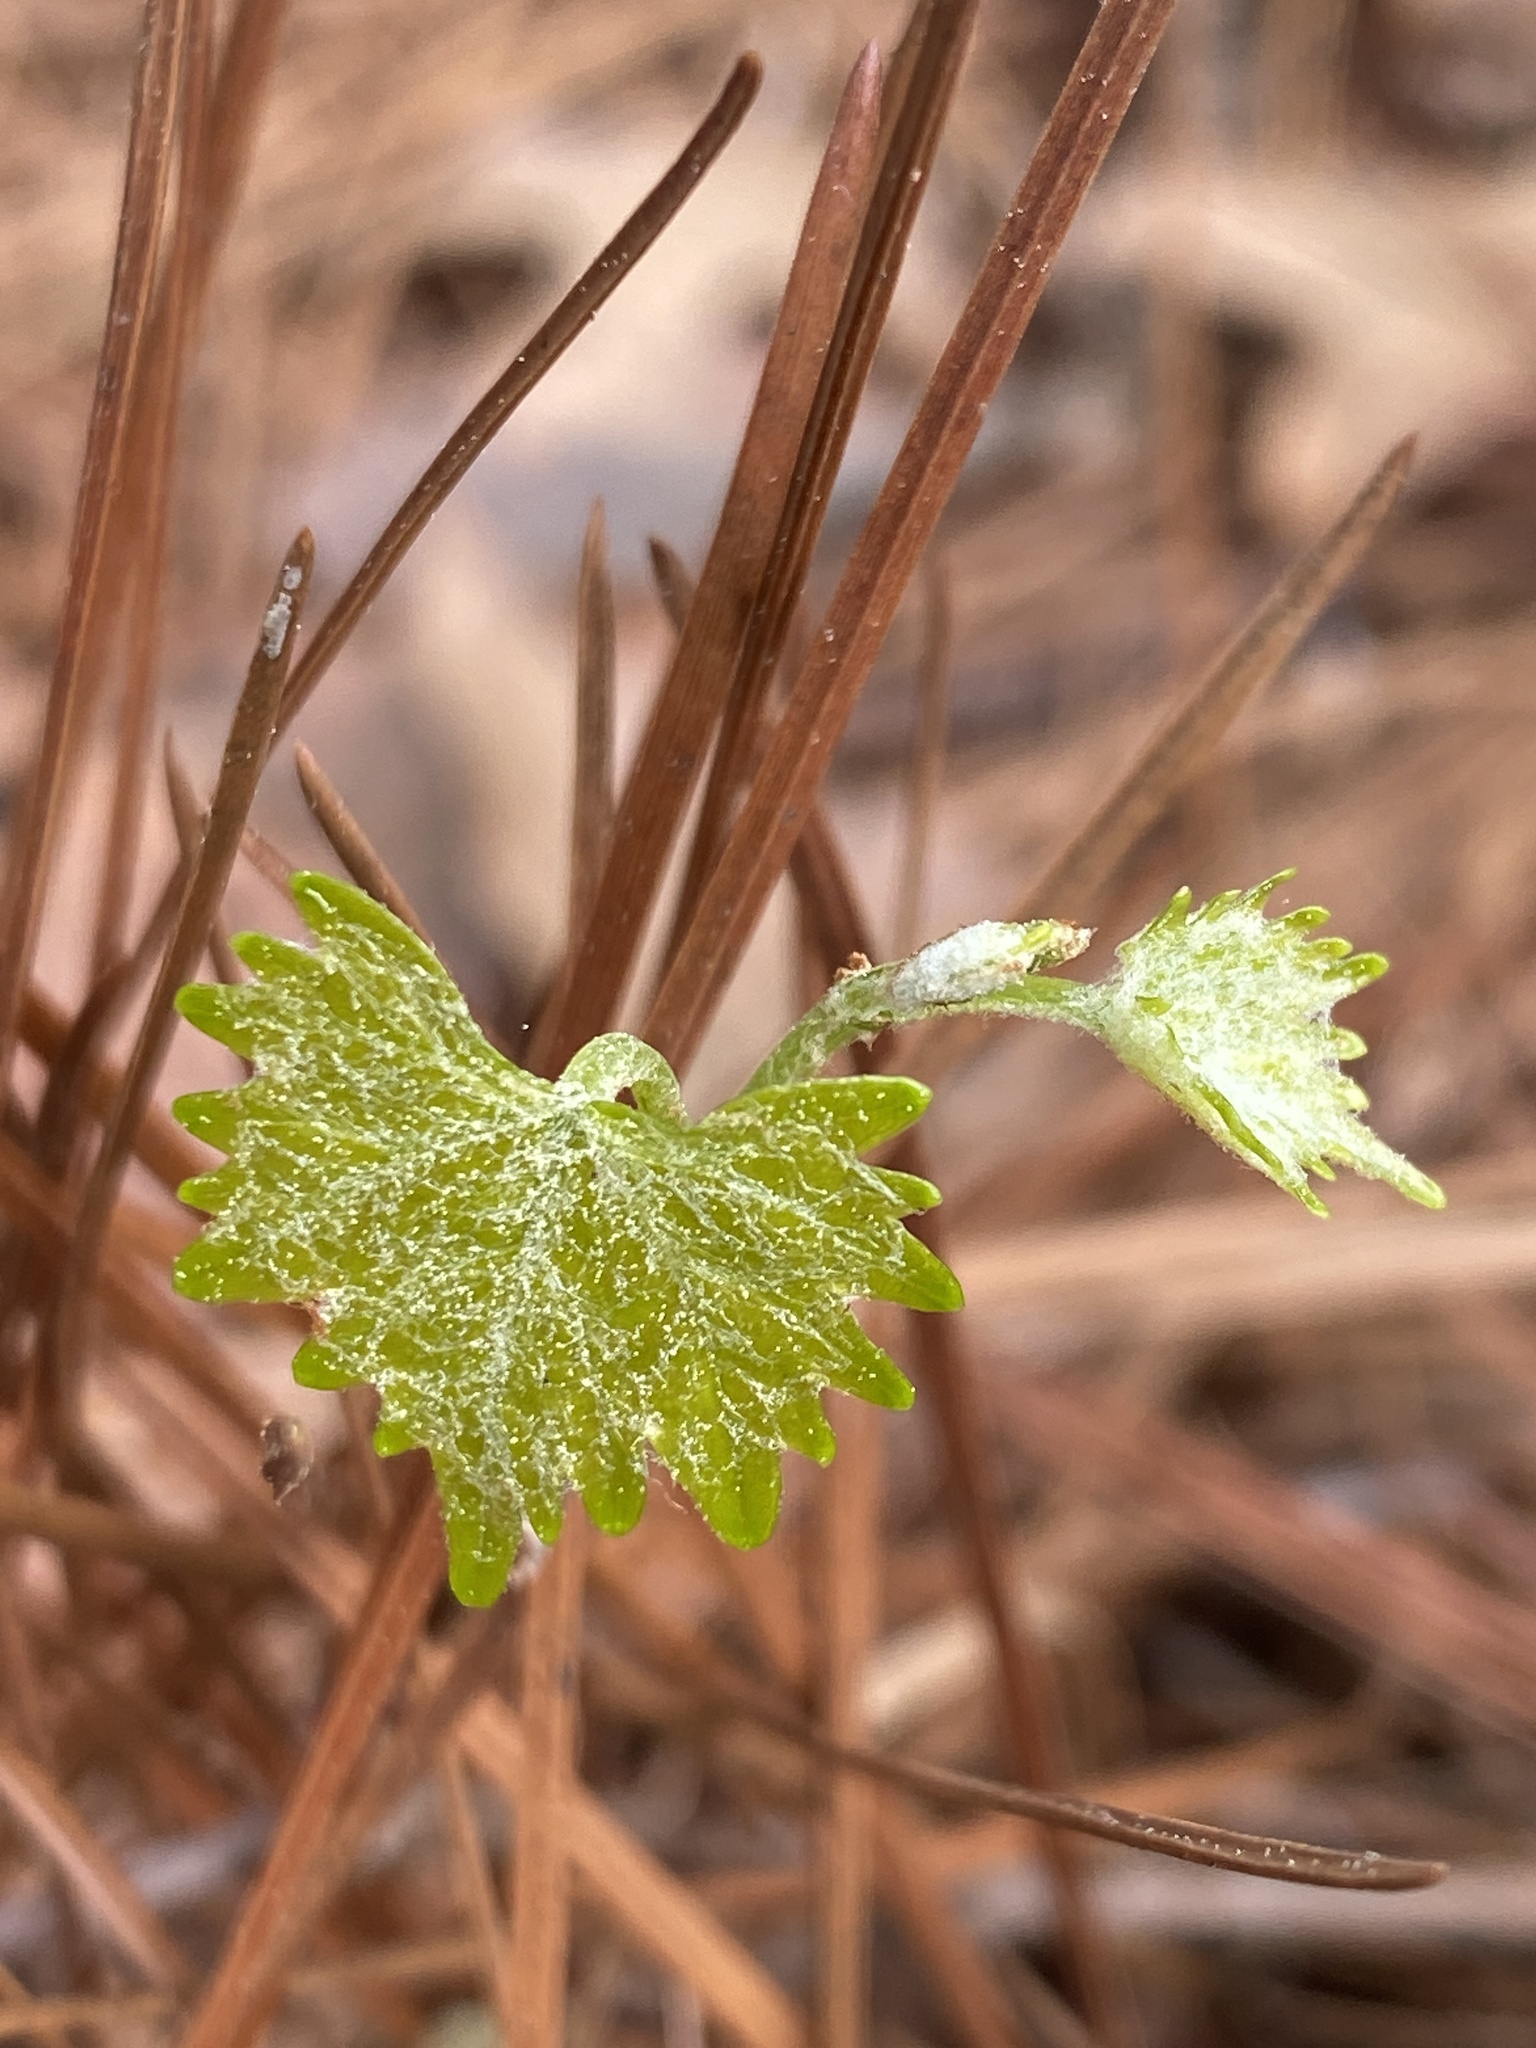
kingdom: Plantae
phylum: Tracheophyta
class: Magnoliopsida
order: Vitales
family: Vitaceae
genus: Vitis
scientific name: Vitis rotundifolia
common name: Muscadine grape
